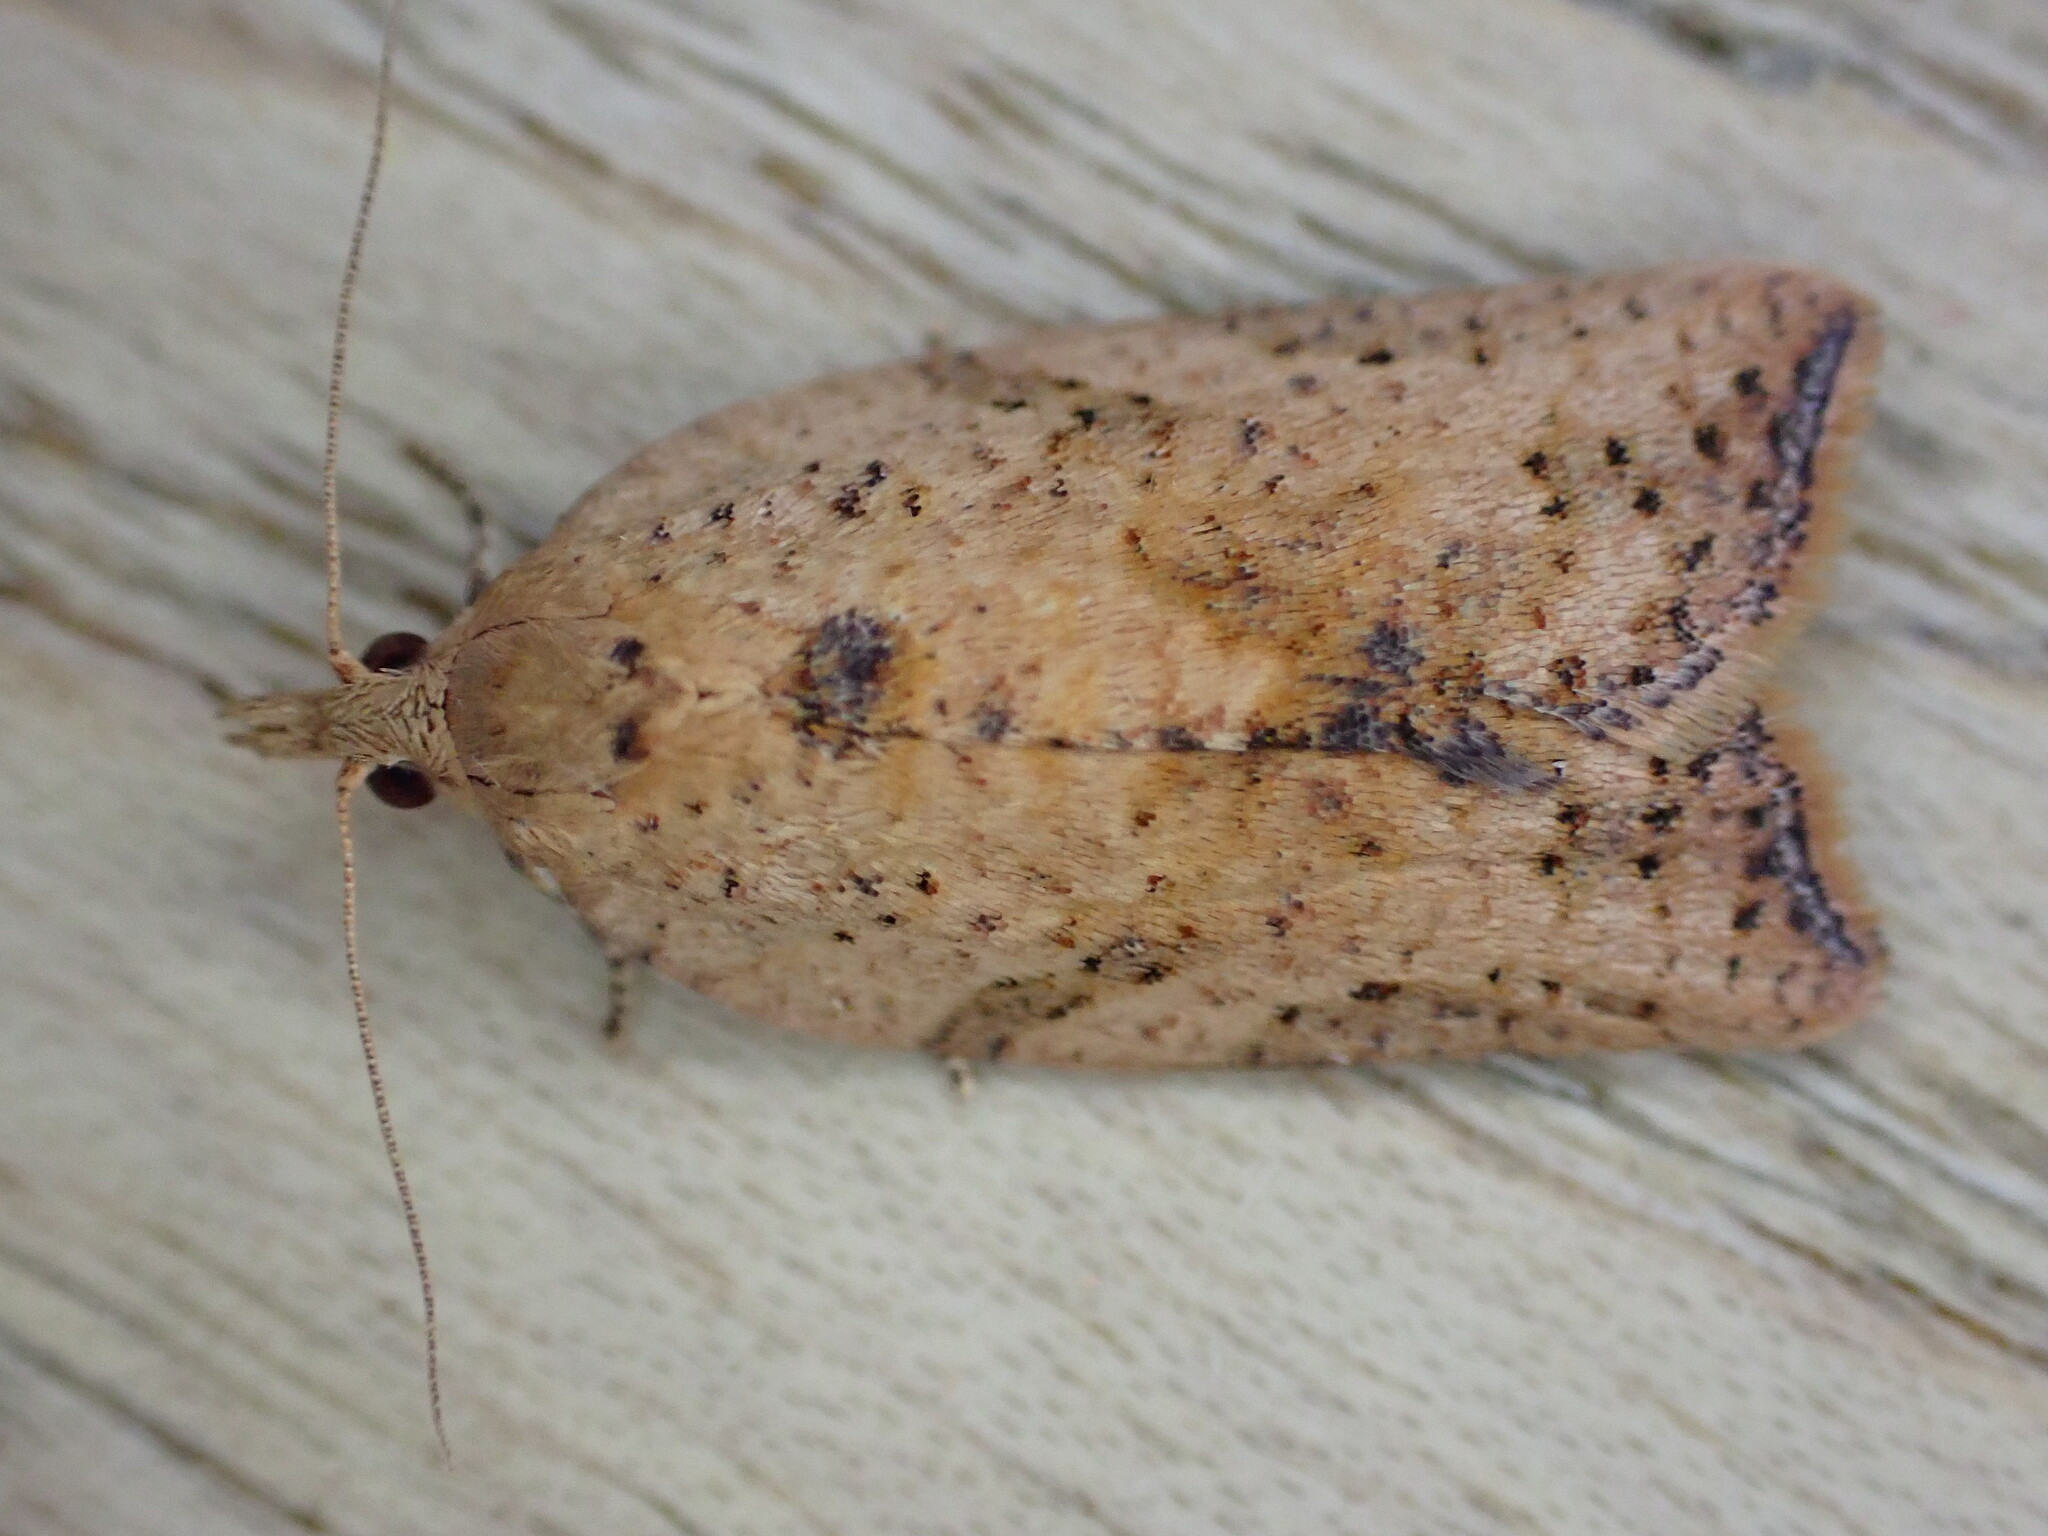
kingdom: Animalia
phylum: Arthropoda
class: Insecta
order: Lepidoptera
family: Tortricidae
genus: Epiphyas
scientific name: Epiphyas postvittana
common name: Light brown apple moth
